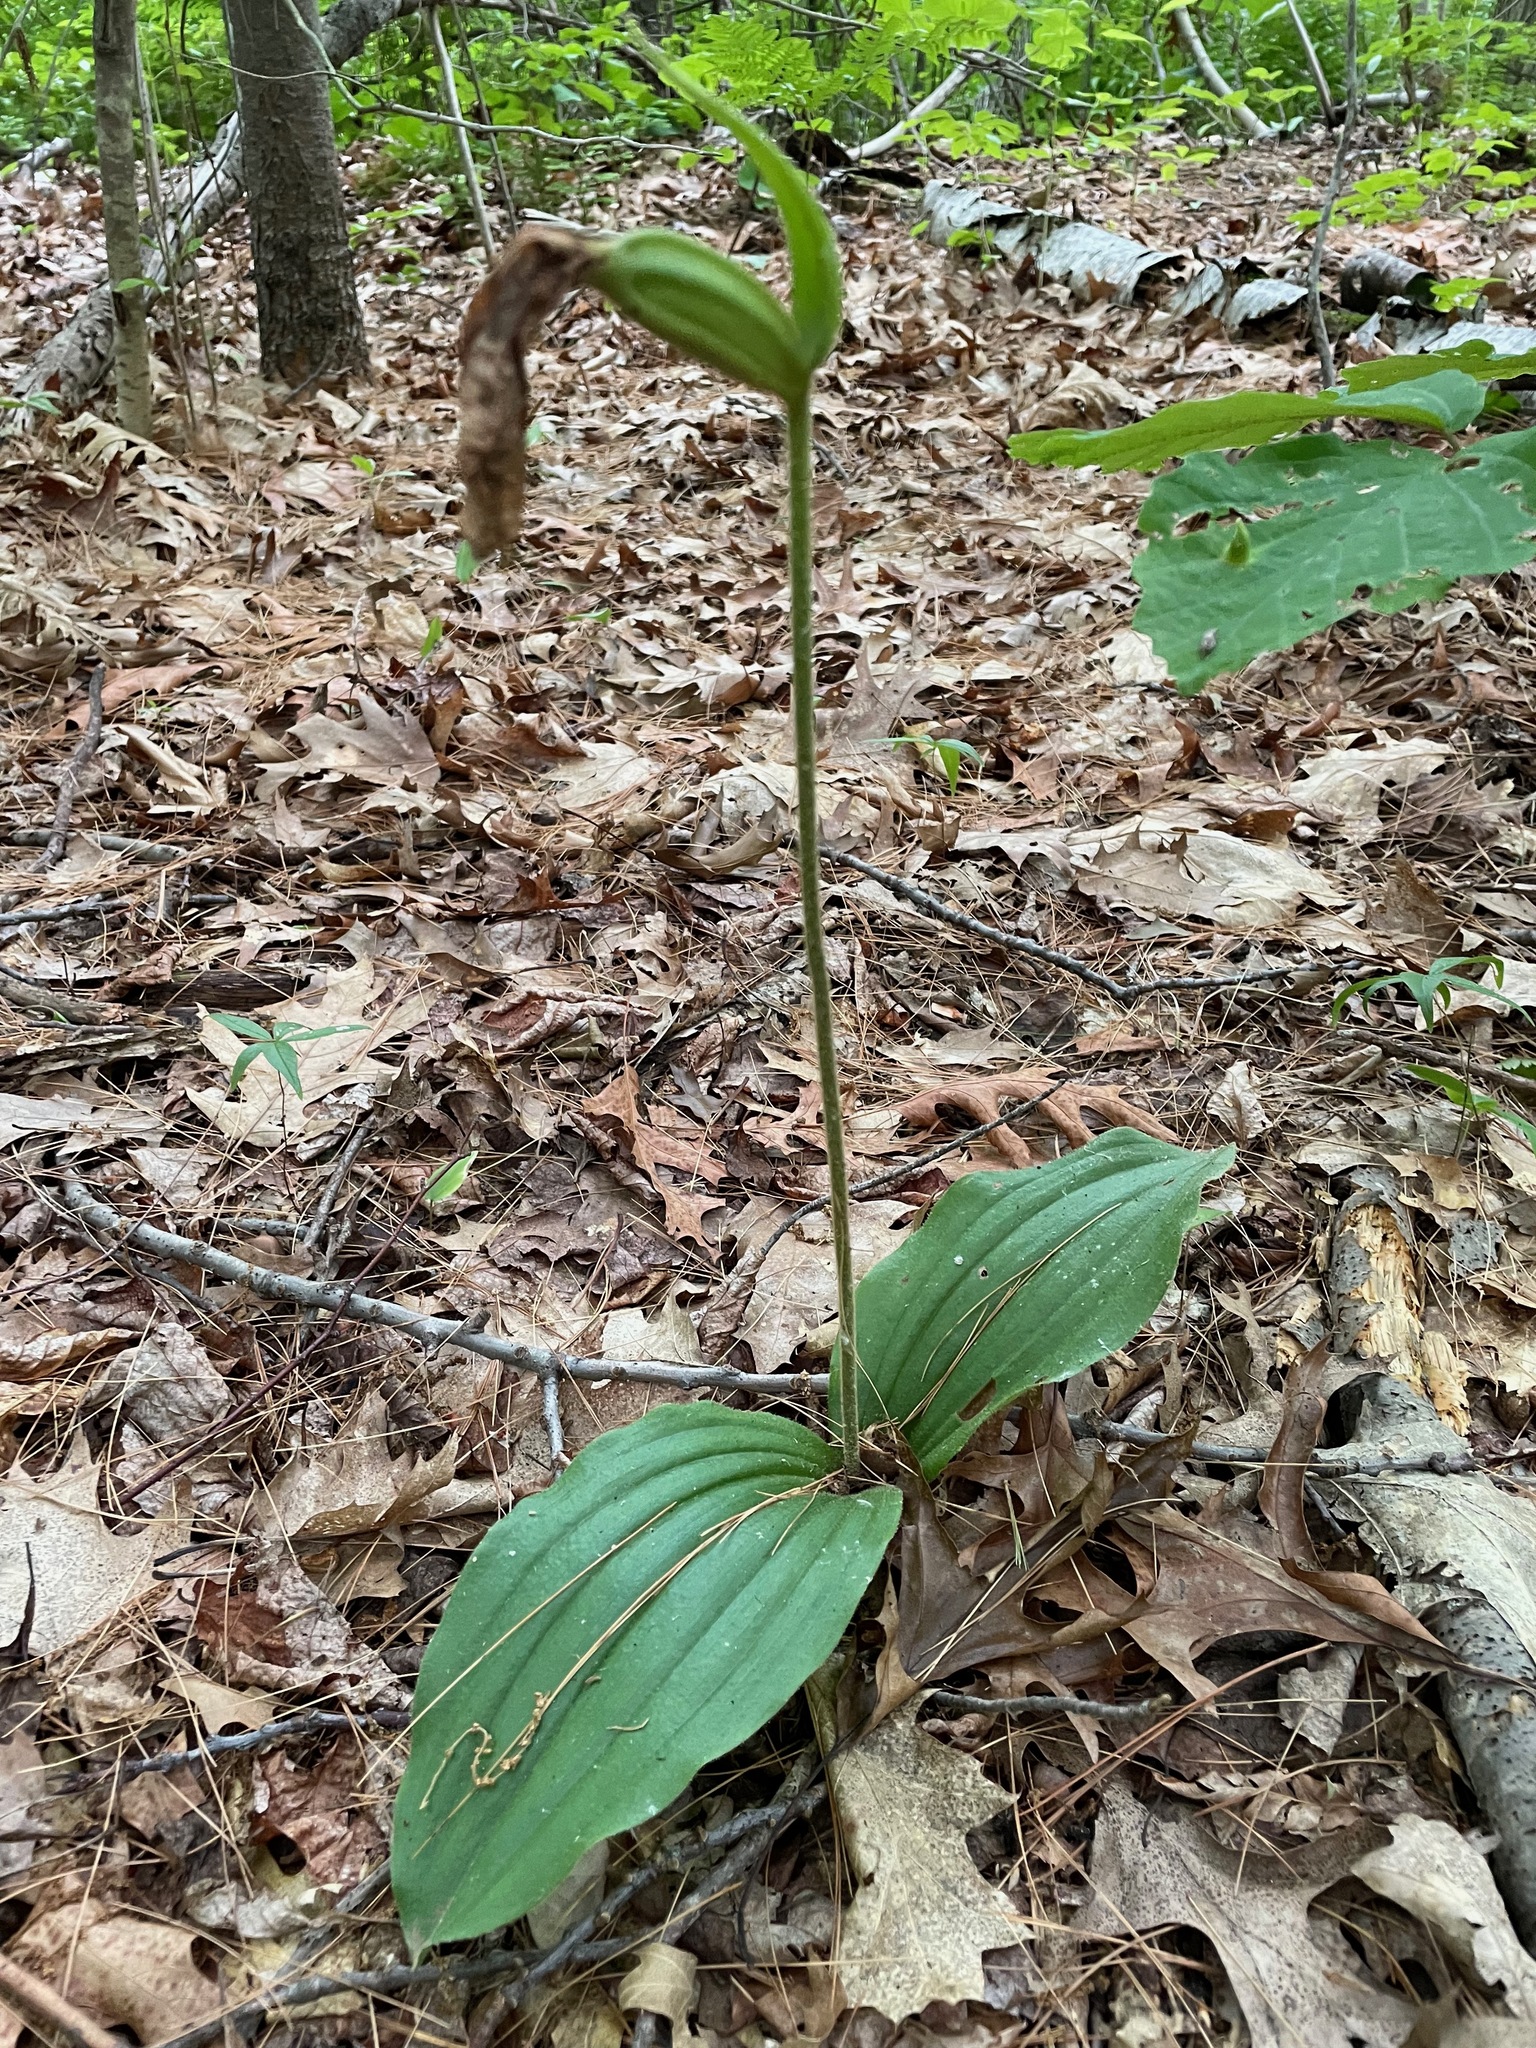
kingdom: Plantae
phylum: Tracheophyta
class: Liliopsida
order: Asparagales
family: Orchidaceae
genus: Cypripedium
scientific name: Cypripedium acaule
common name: Pink lady's-slipper
